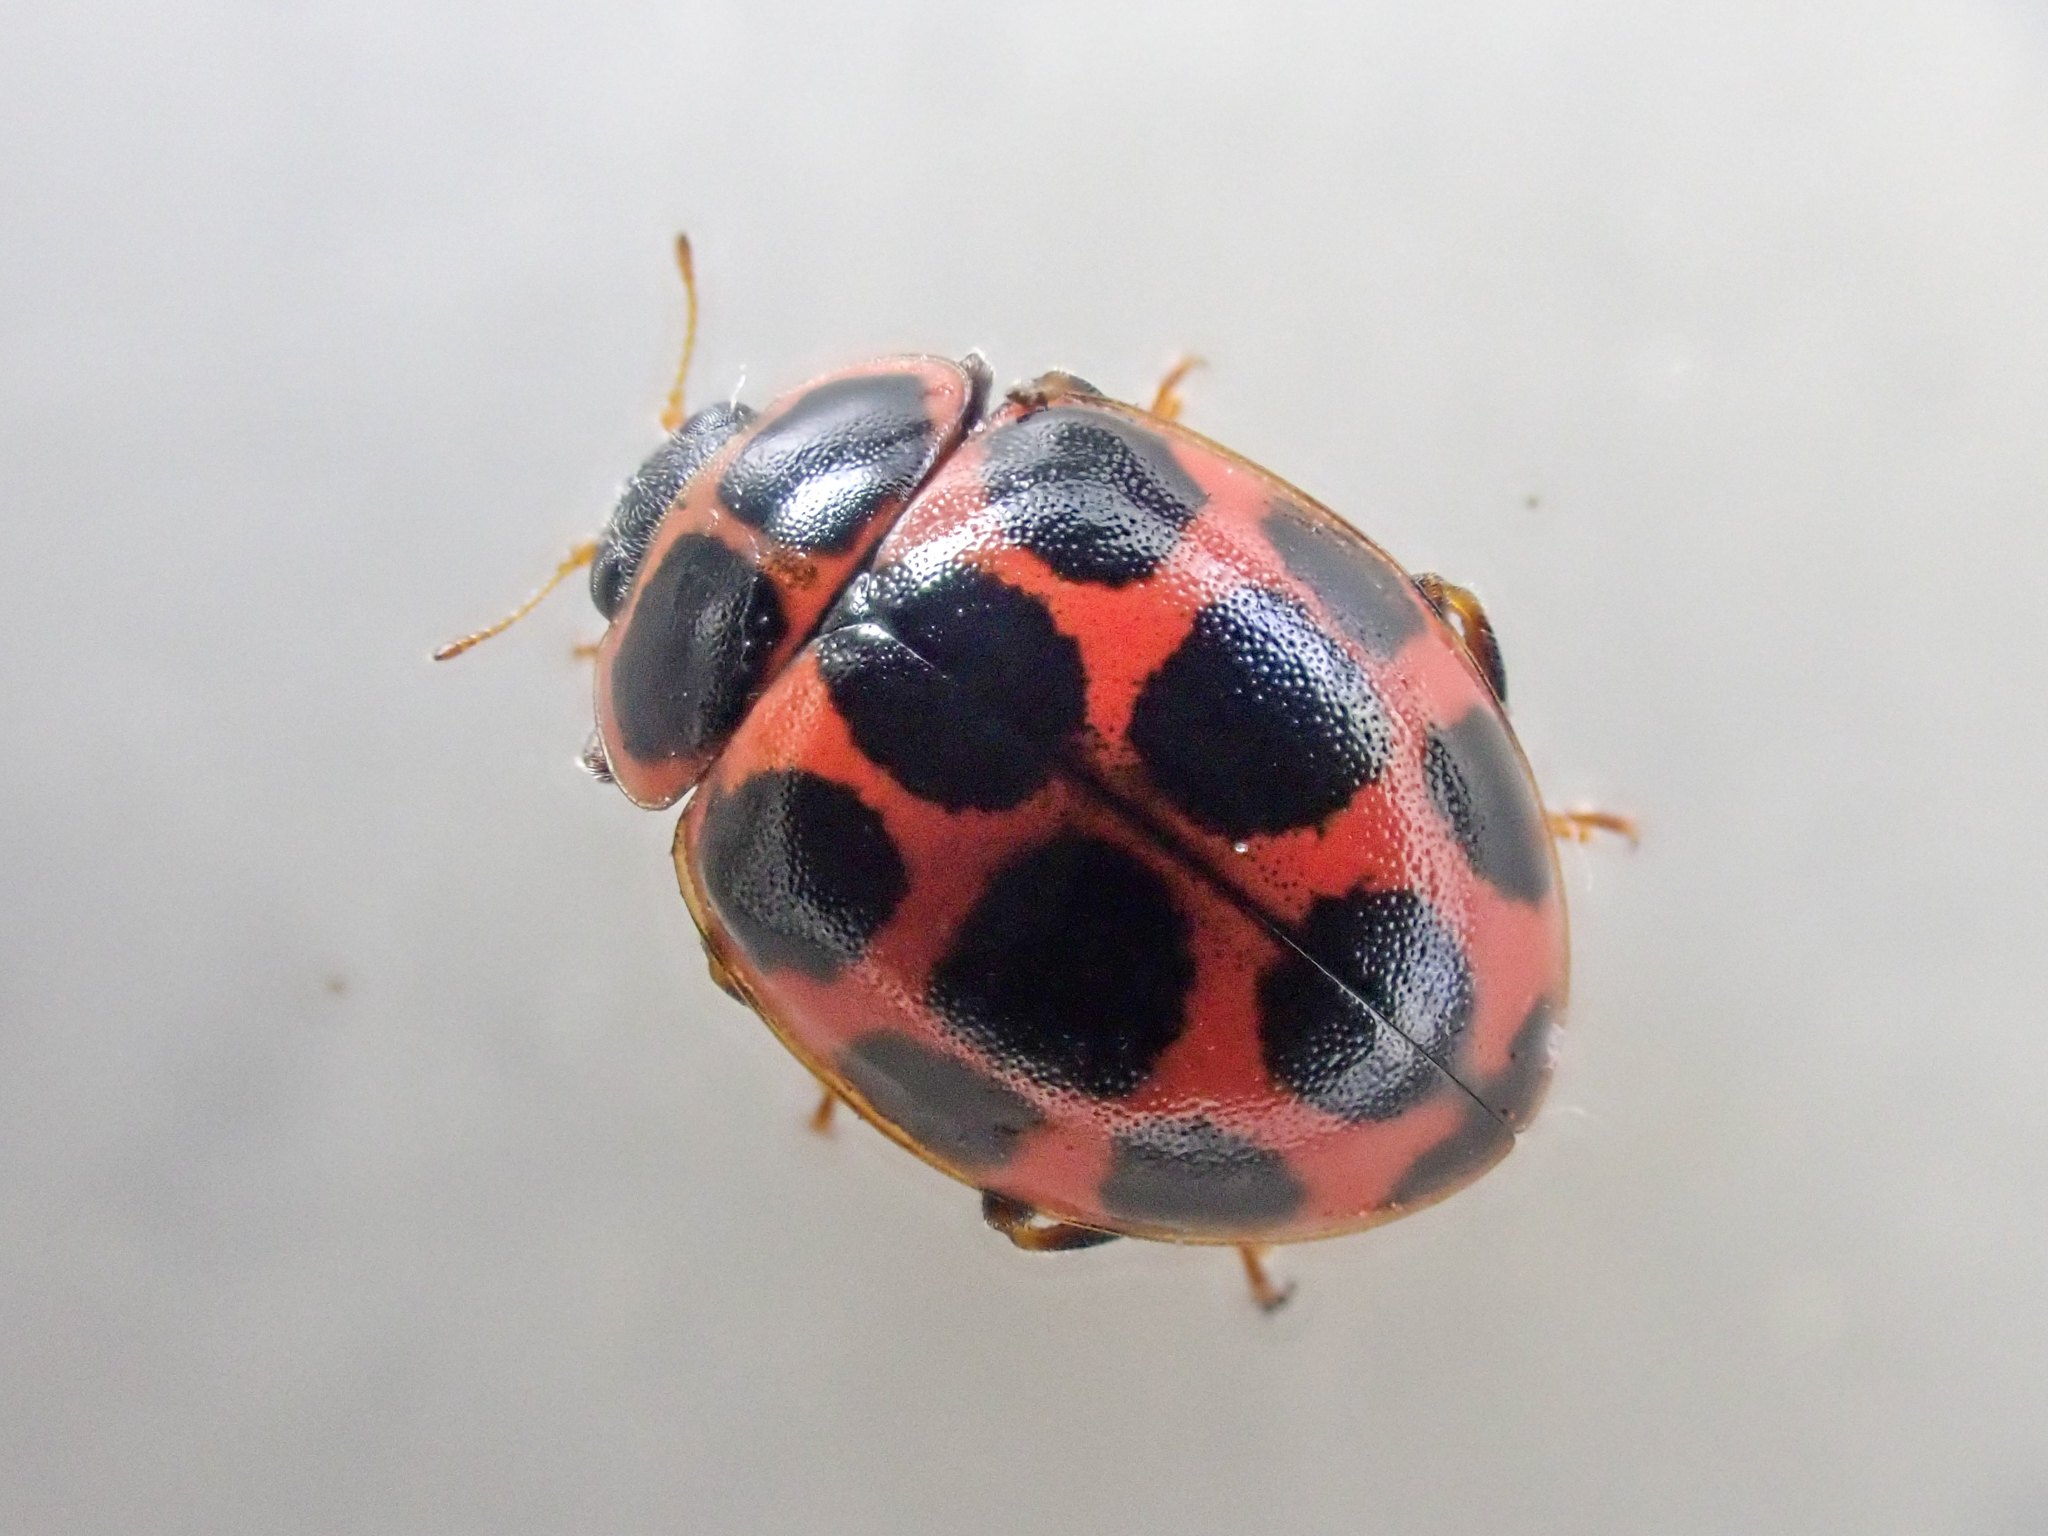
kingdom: Animalia
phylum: Arthropoda
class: Insecta
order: Coleoptera
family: Coccinellidae
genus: Calvia
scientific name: Calvia quatuordecimguttata
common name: Cream-spot ladybird
